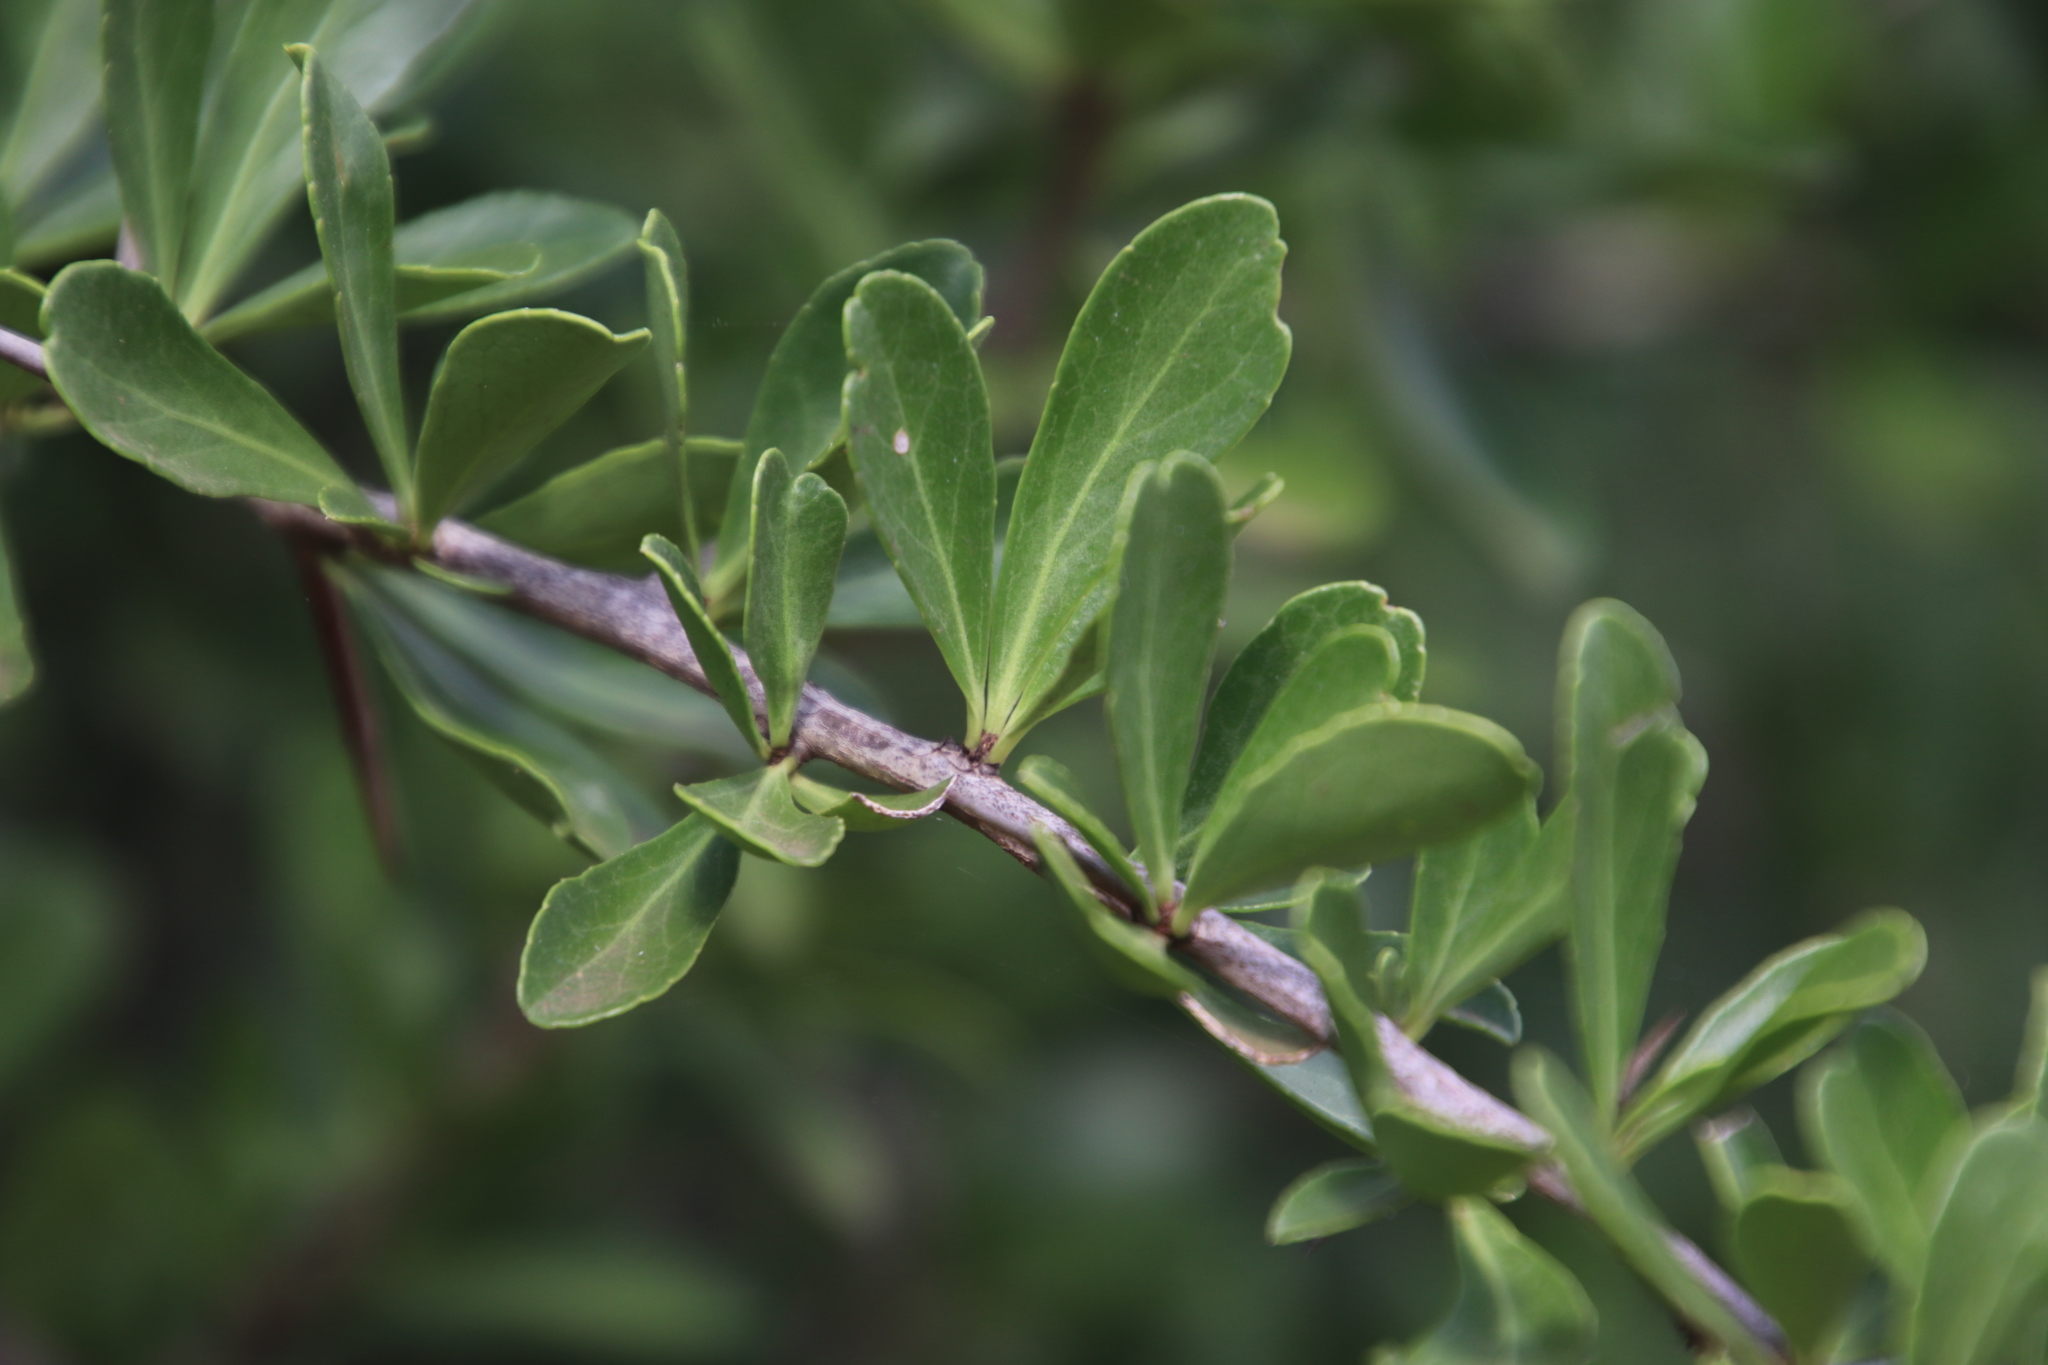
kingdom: Plantae
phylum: Tracheophyta
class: Magnoliopsida
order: Celastrales
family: Celastraceae
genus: Gymnosporia
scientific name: Gymnosporia maranguensis
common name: Tropical spike-thorn
